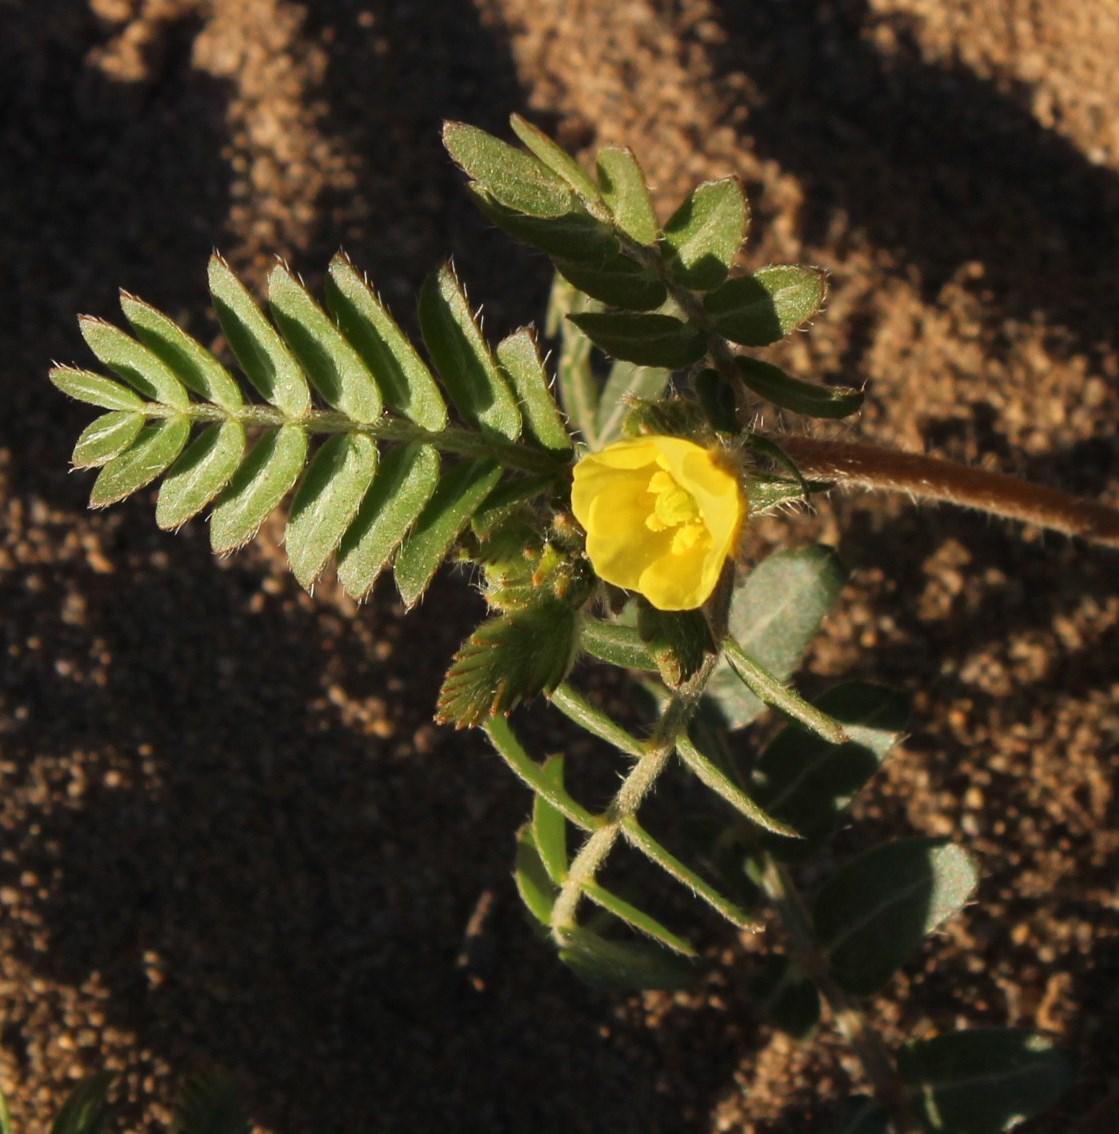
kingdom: Plantae
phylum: Tracheophyta
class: Magnoliopsida
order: Zygophyllales
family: Zygophyllaceae
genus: Tribulus
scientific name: Tribulus terrestris
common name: Puncturevine
